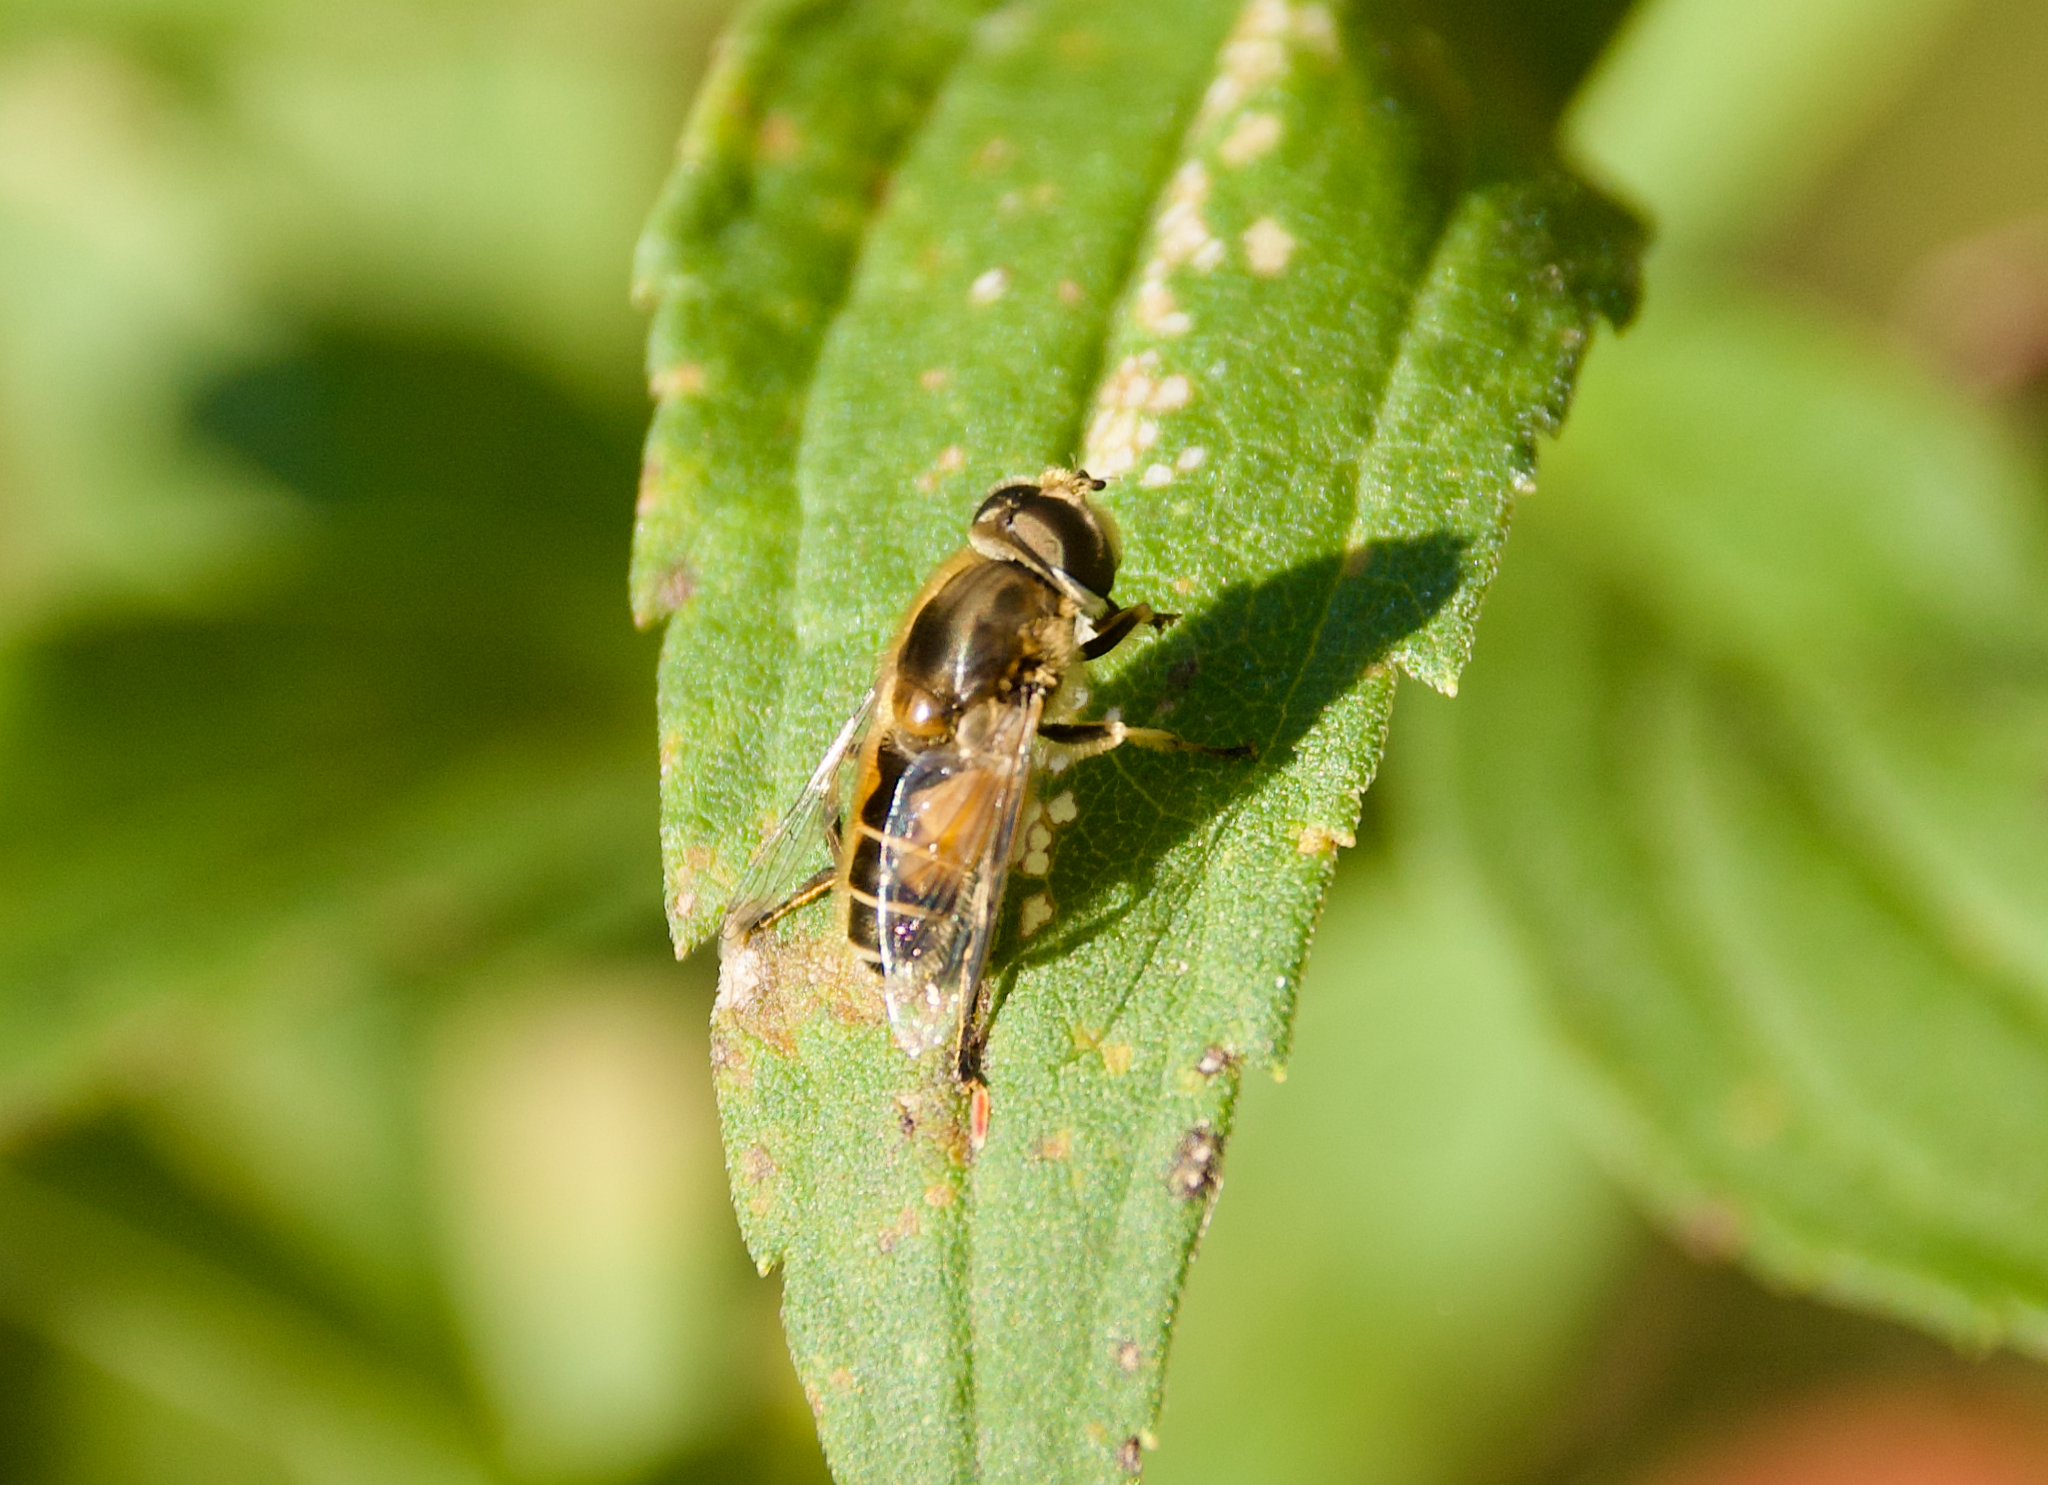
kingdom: Animalia
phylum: Arthropoda
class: Insecta
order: Diptera
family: Syrphidae
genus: Eristalis
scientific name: Eristalis arbustorum
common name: Hover fly
